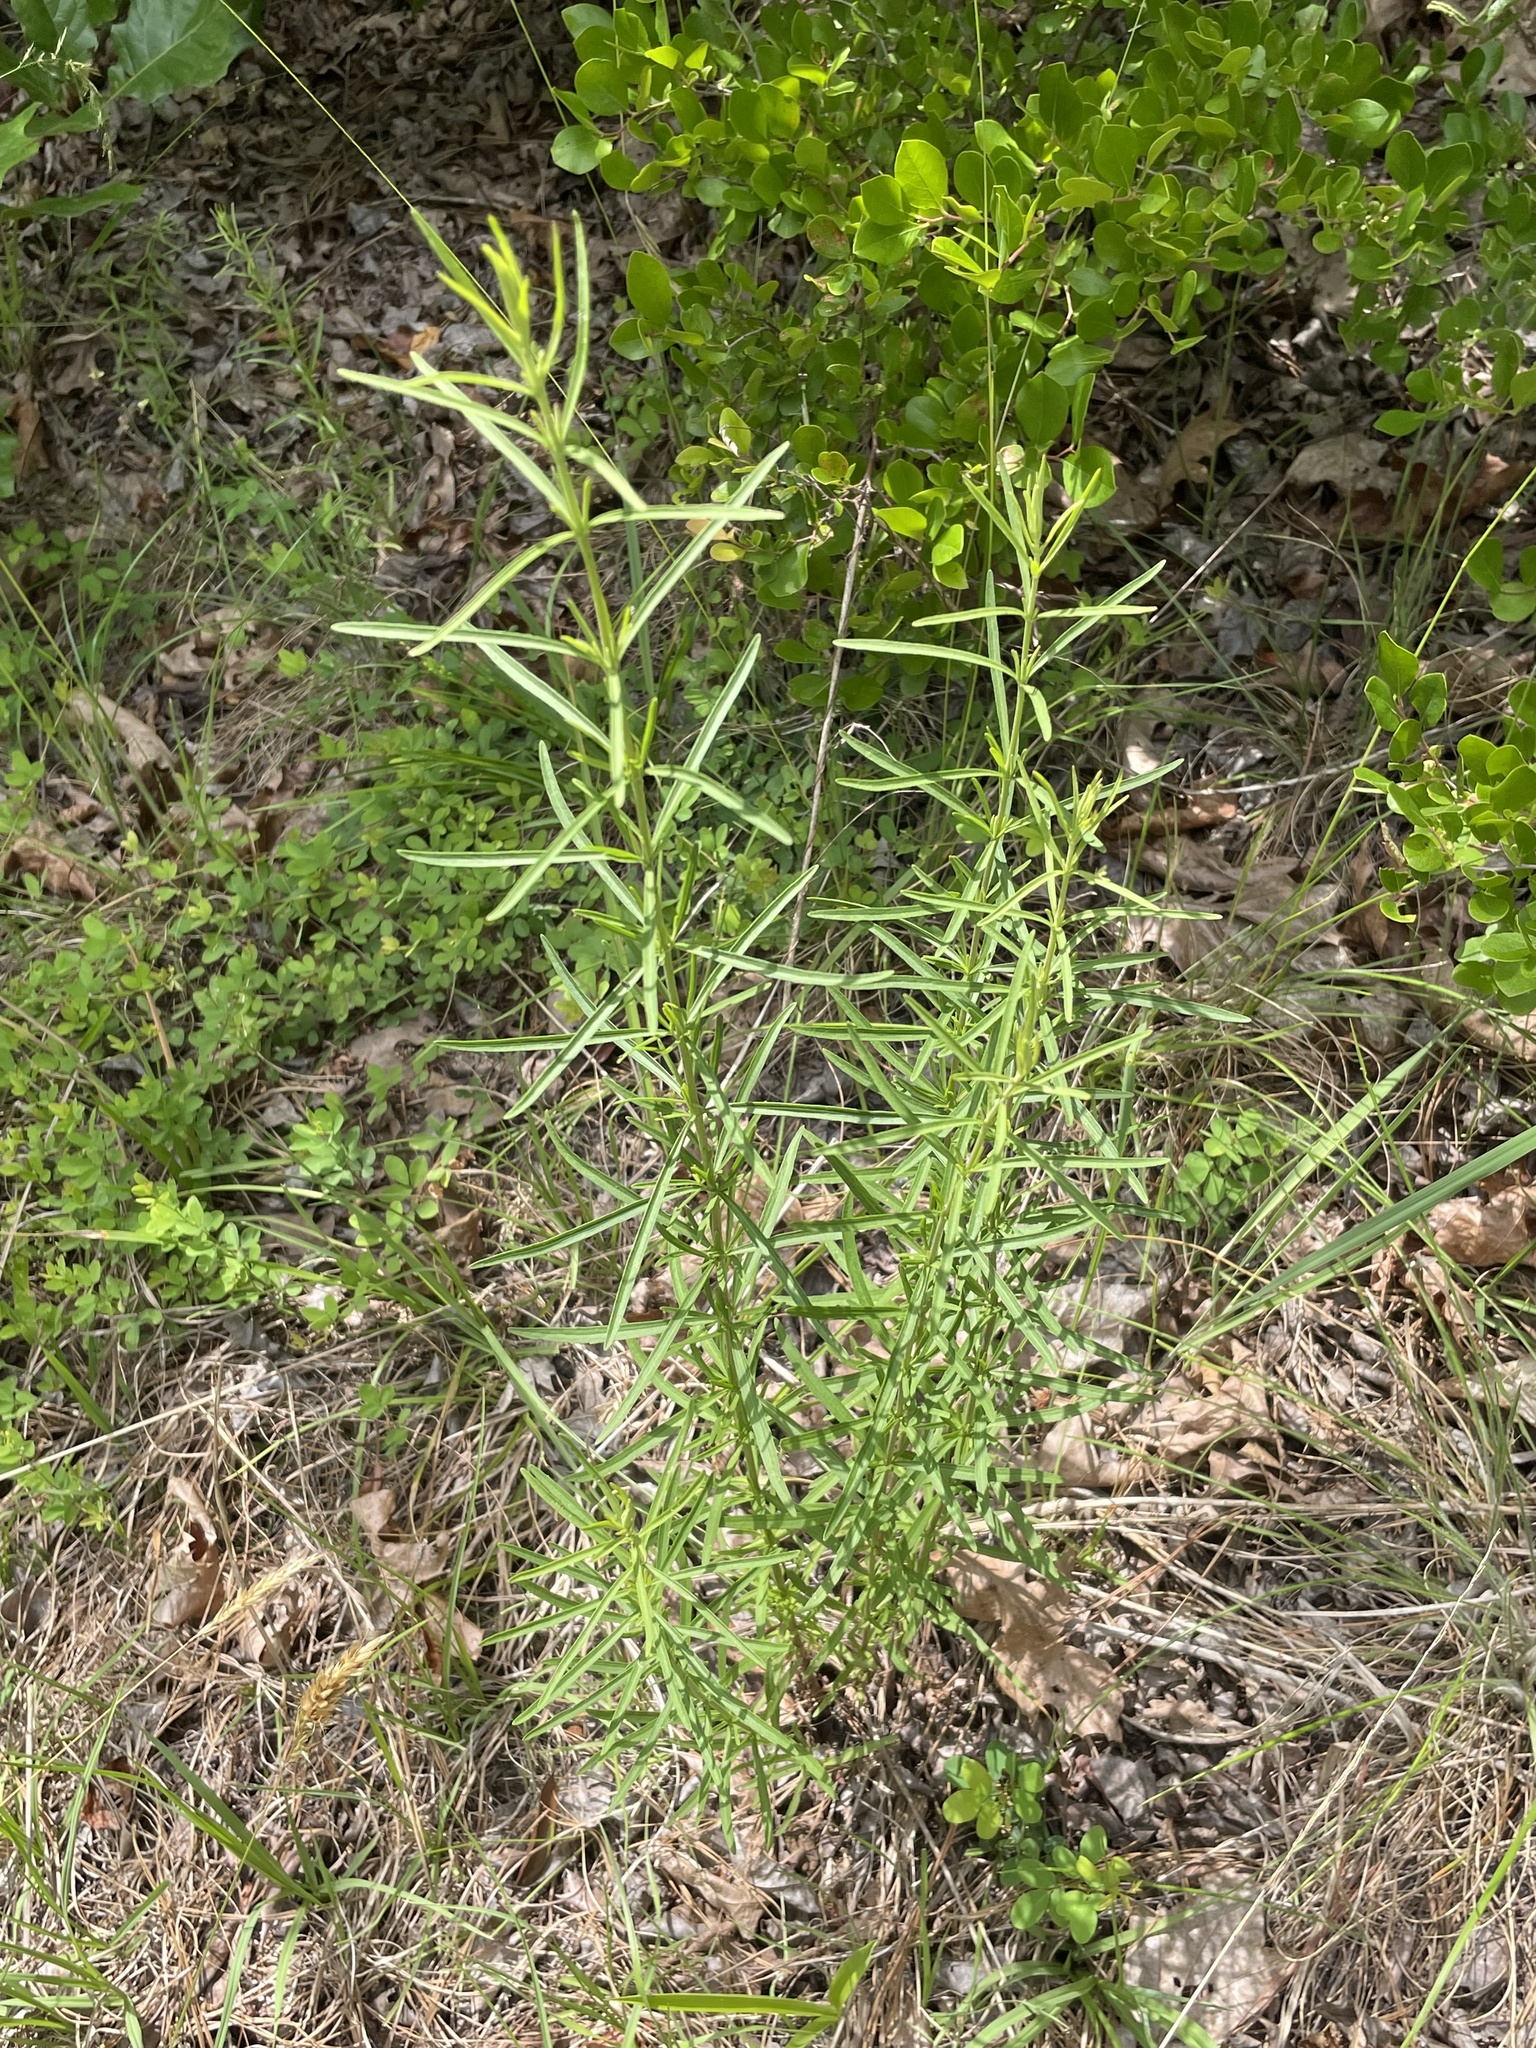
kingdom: Plantae
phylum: Tracheophyta
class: Magnoliopsida
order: Asterales
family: Asteraceae
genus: Eupatorium
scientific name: Eupatorium hyssopifolium
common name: Hyssop-leaf thoroughwort
